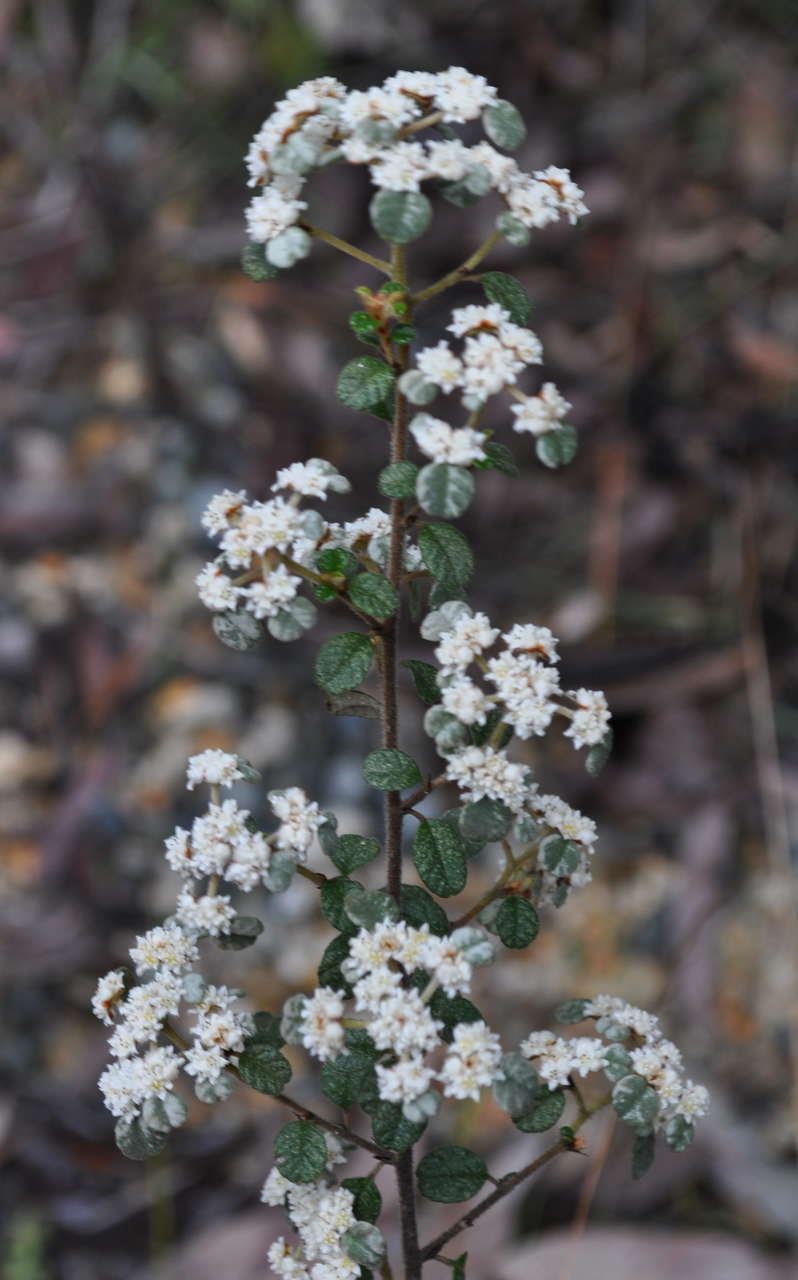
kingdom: Plantae
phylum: Tracheophyta
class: Magnoliopsida
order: Rosales
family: Rhamnaceae
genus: Spyridium
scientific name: Spyridium parvifolium
